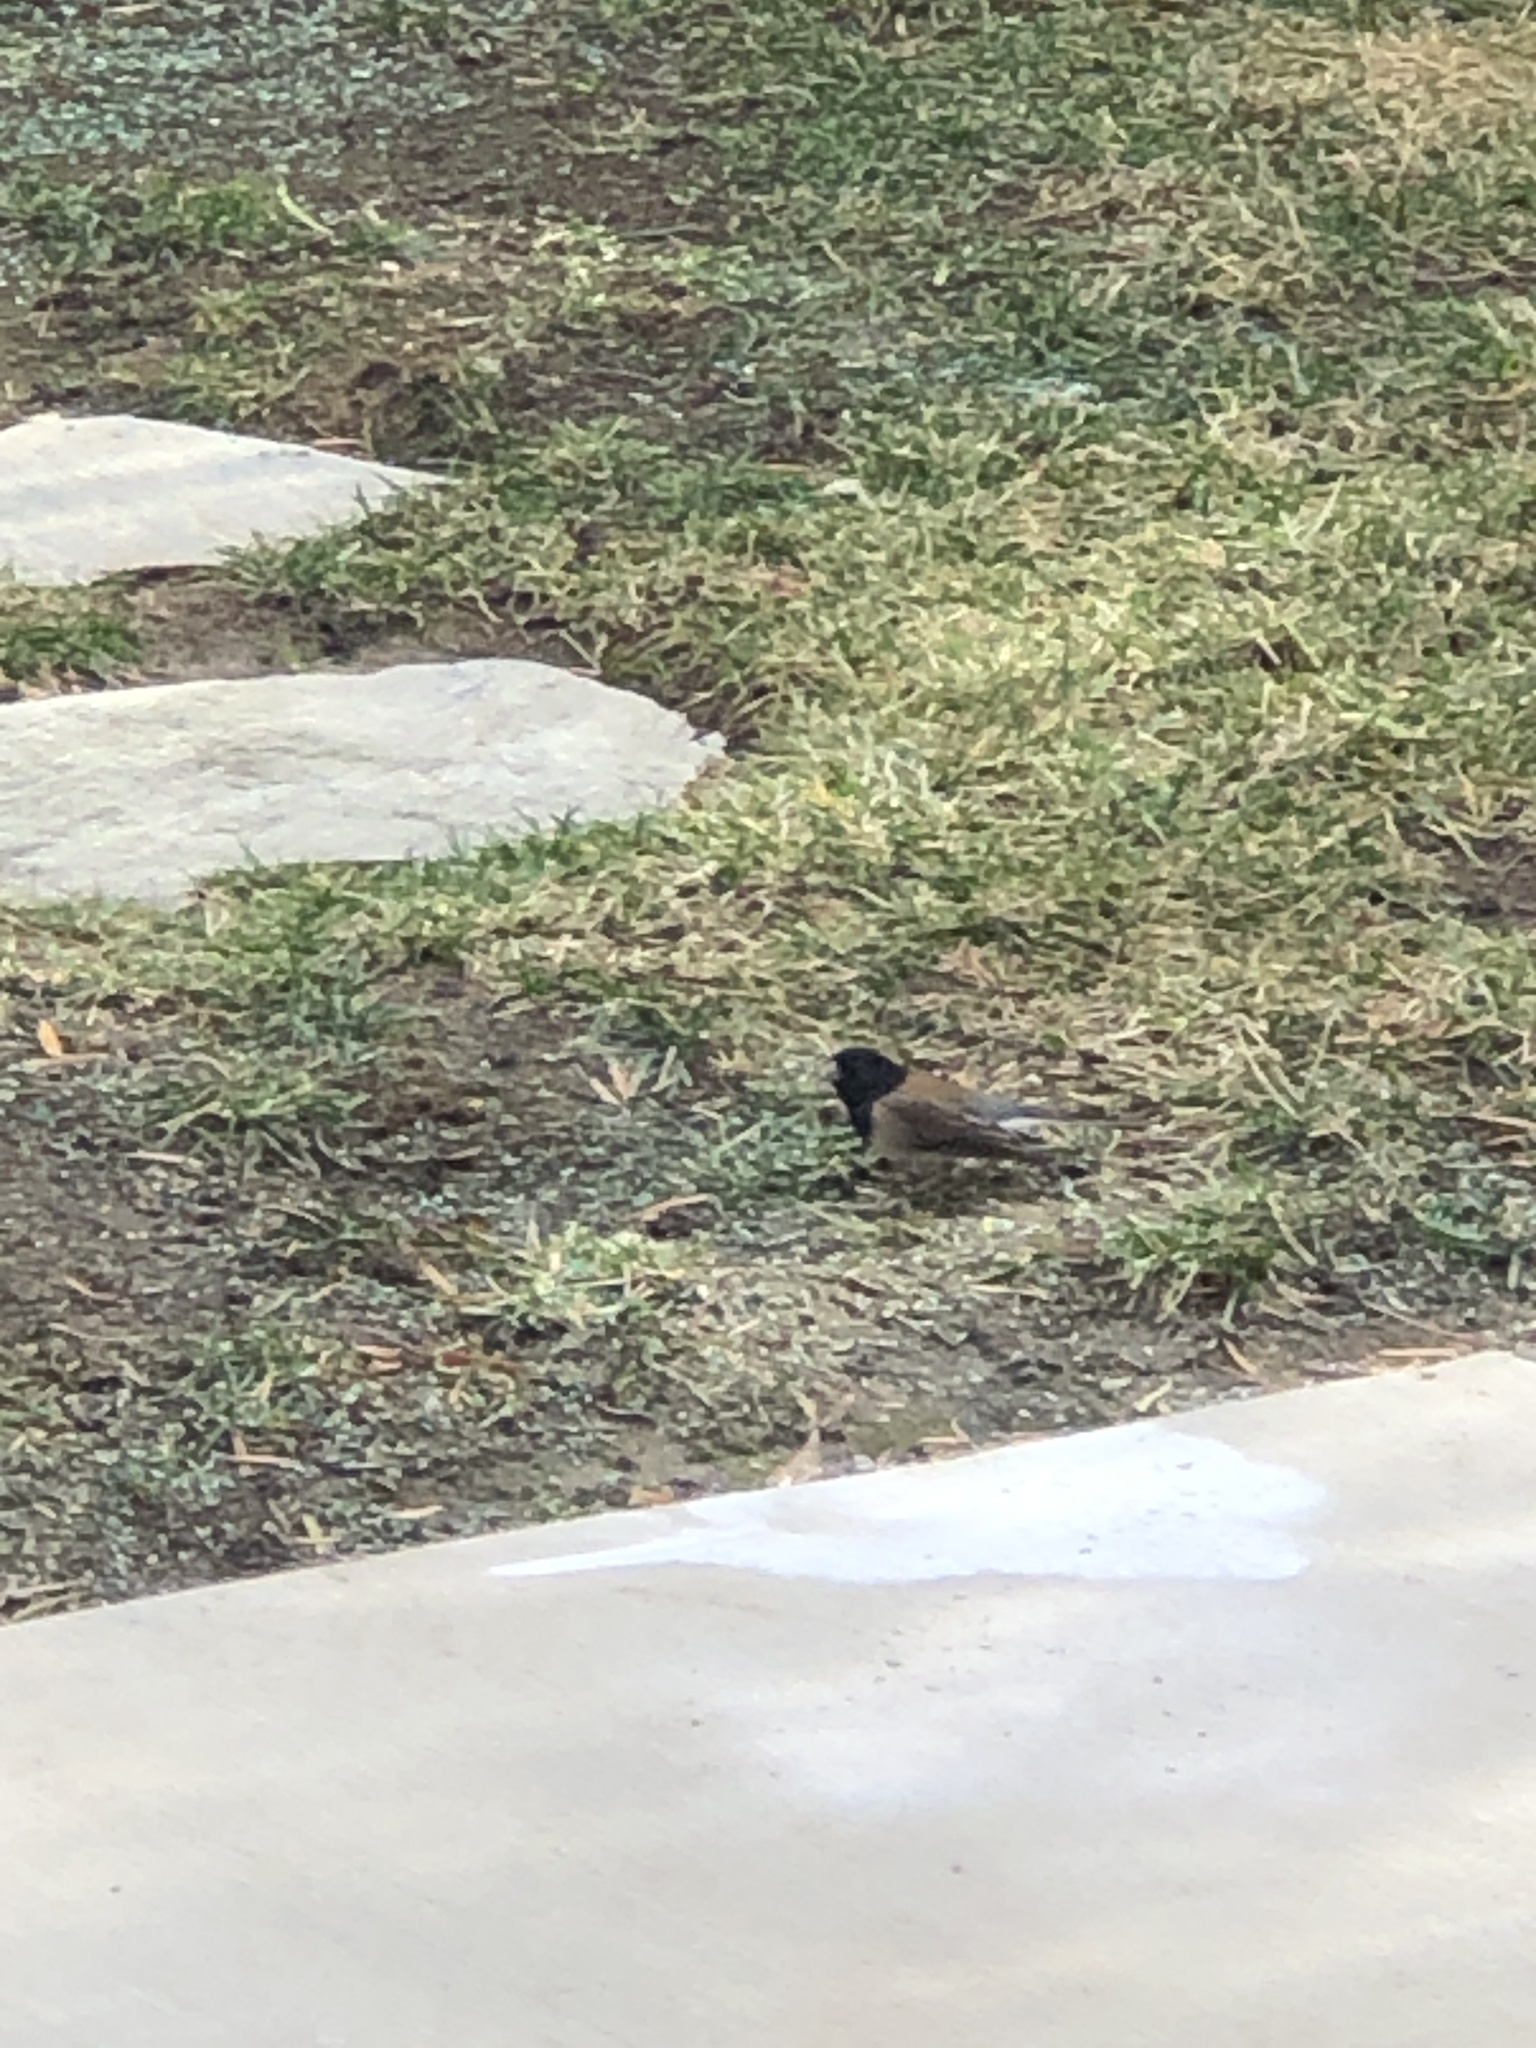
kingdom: Animalia
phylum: Chordata
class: Aves
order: Passeriformes
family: Passerellidae
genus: Junco
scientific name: Junco hyemalis
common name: Dark-eyed junco
